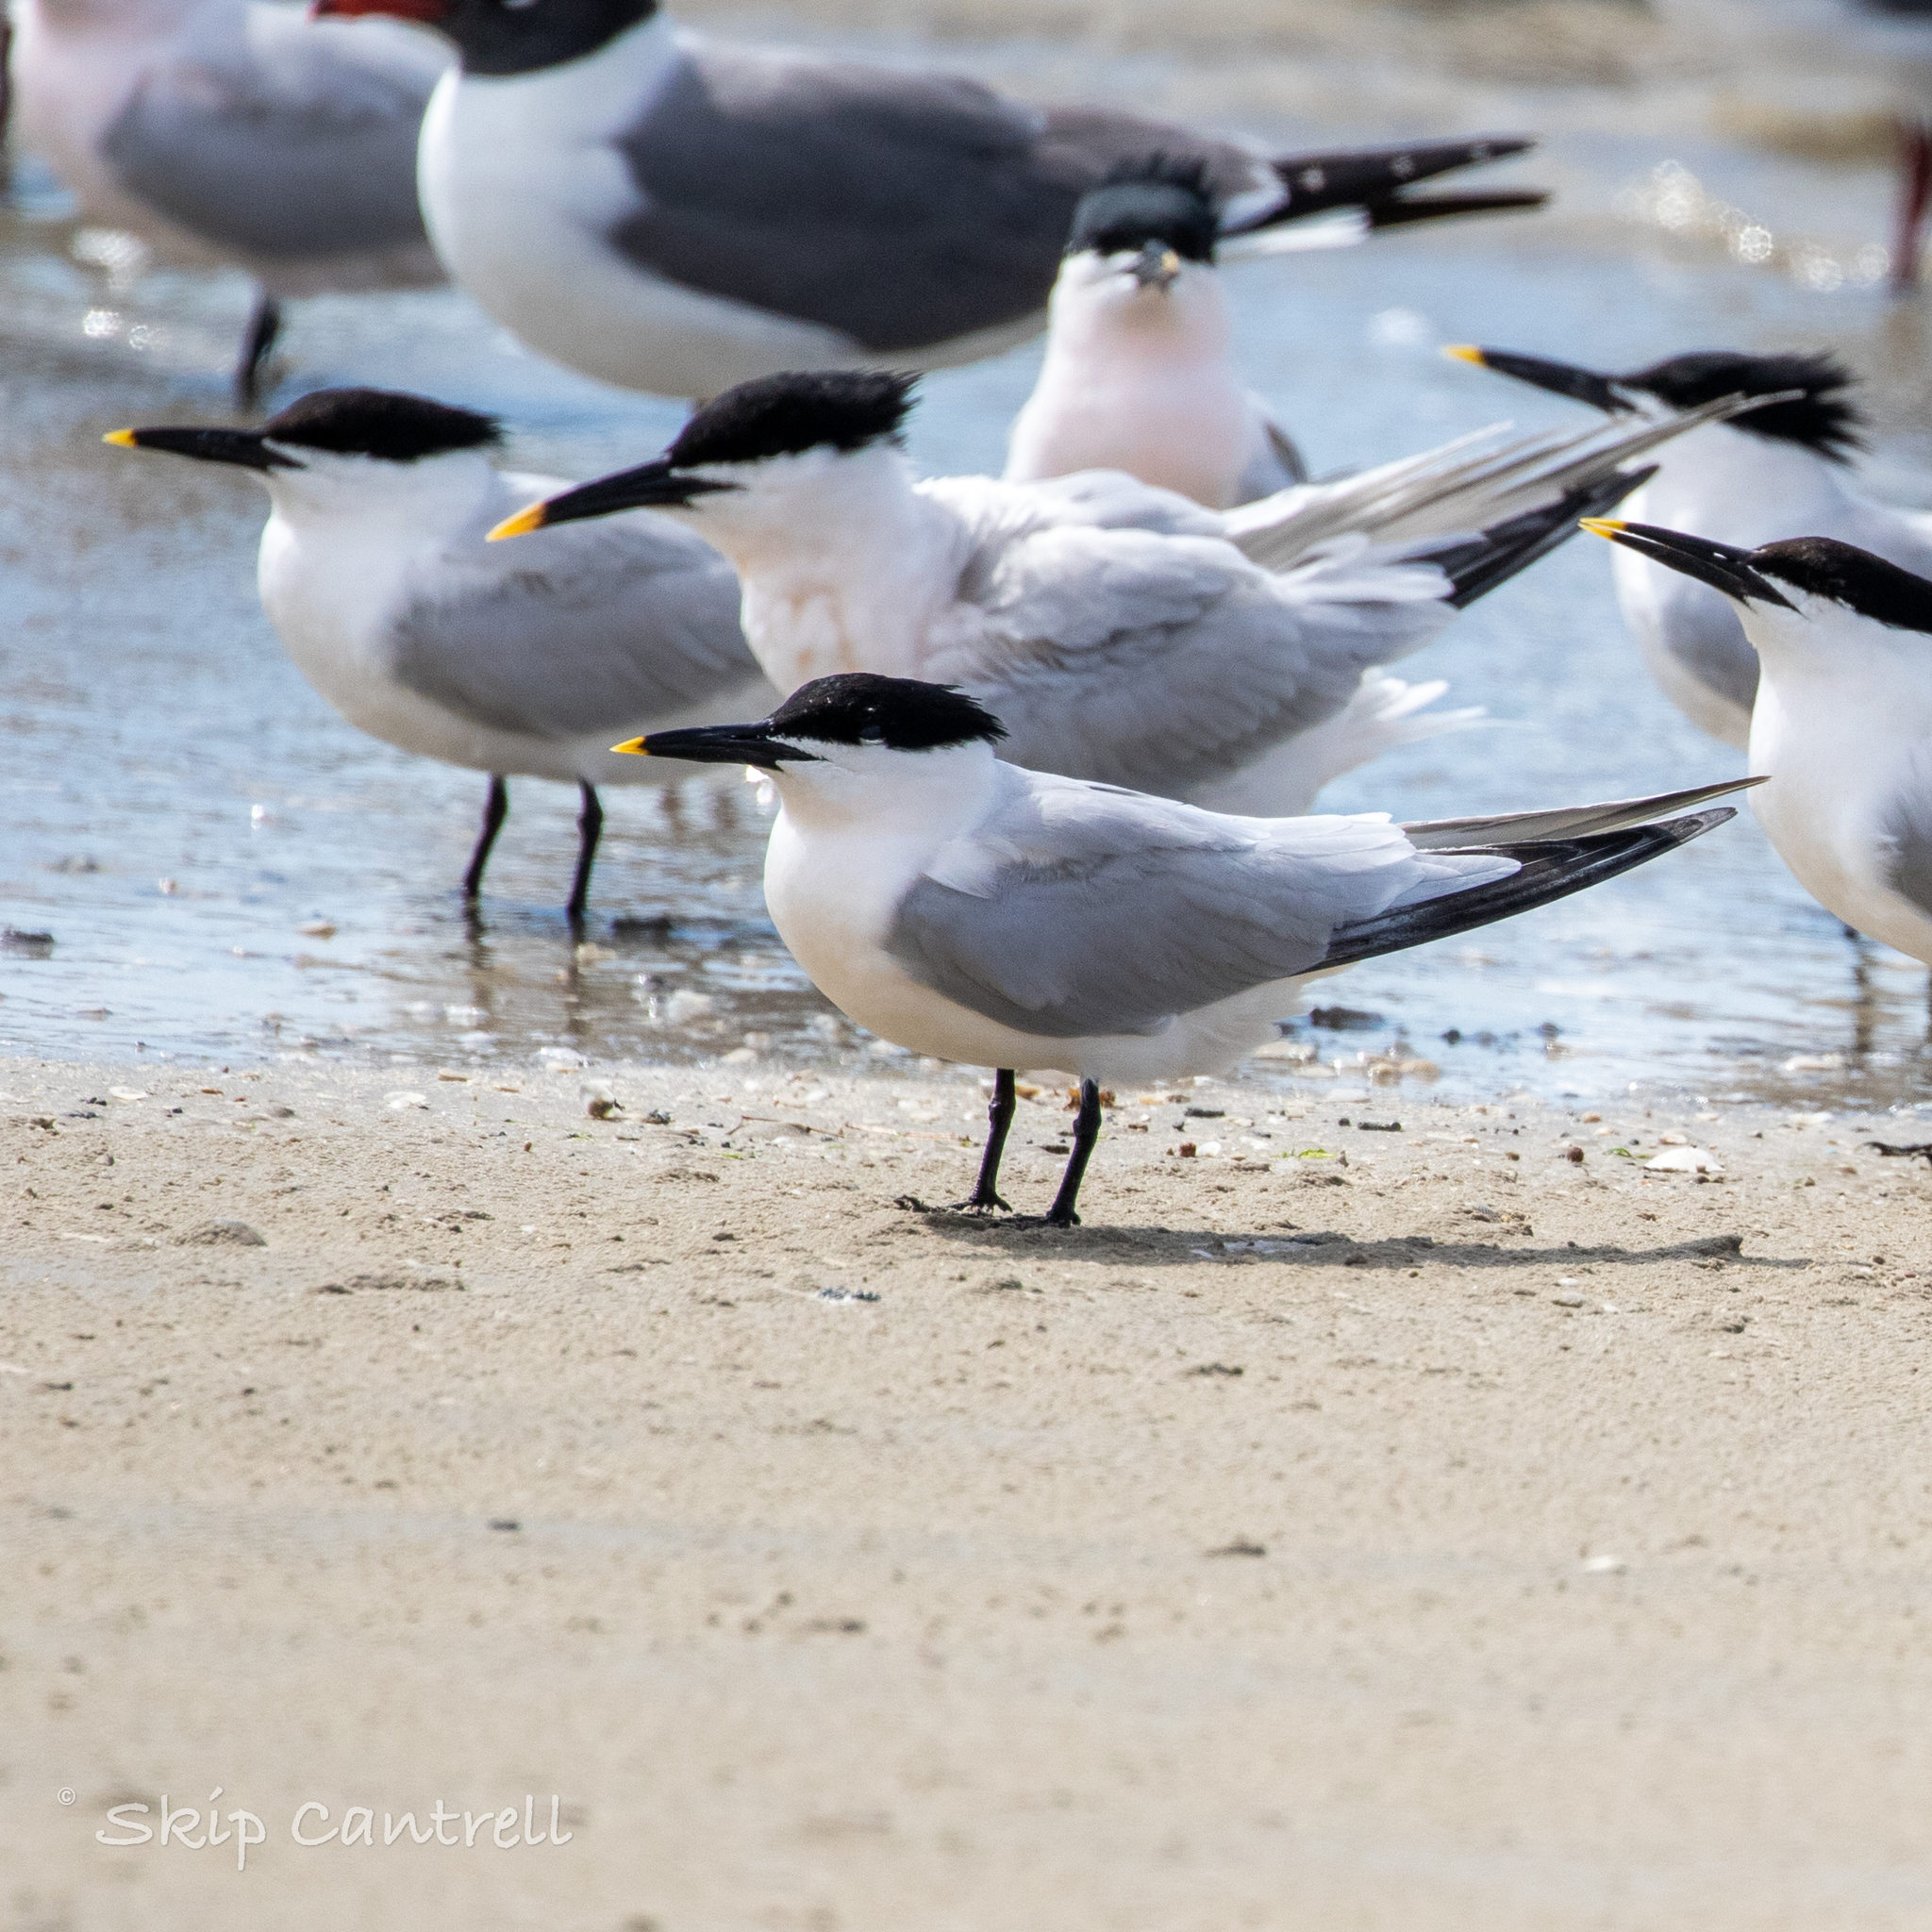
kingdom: Animalia
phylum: Chordata
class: Aves
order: Charadriiformes
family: Laridae
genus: Thalasseus
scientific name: Thalasseus sandvicensis
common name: Sandwich tern
